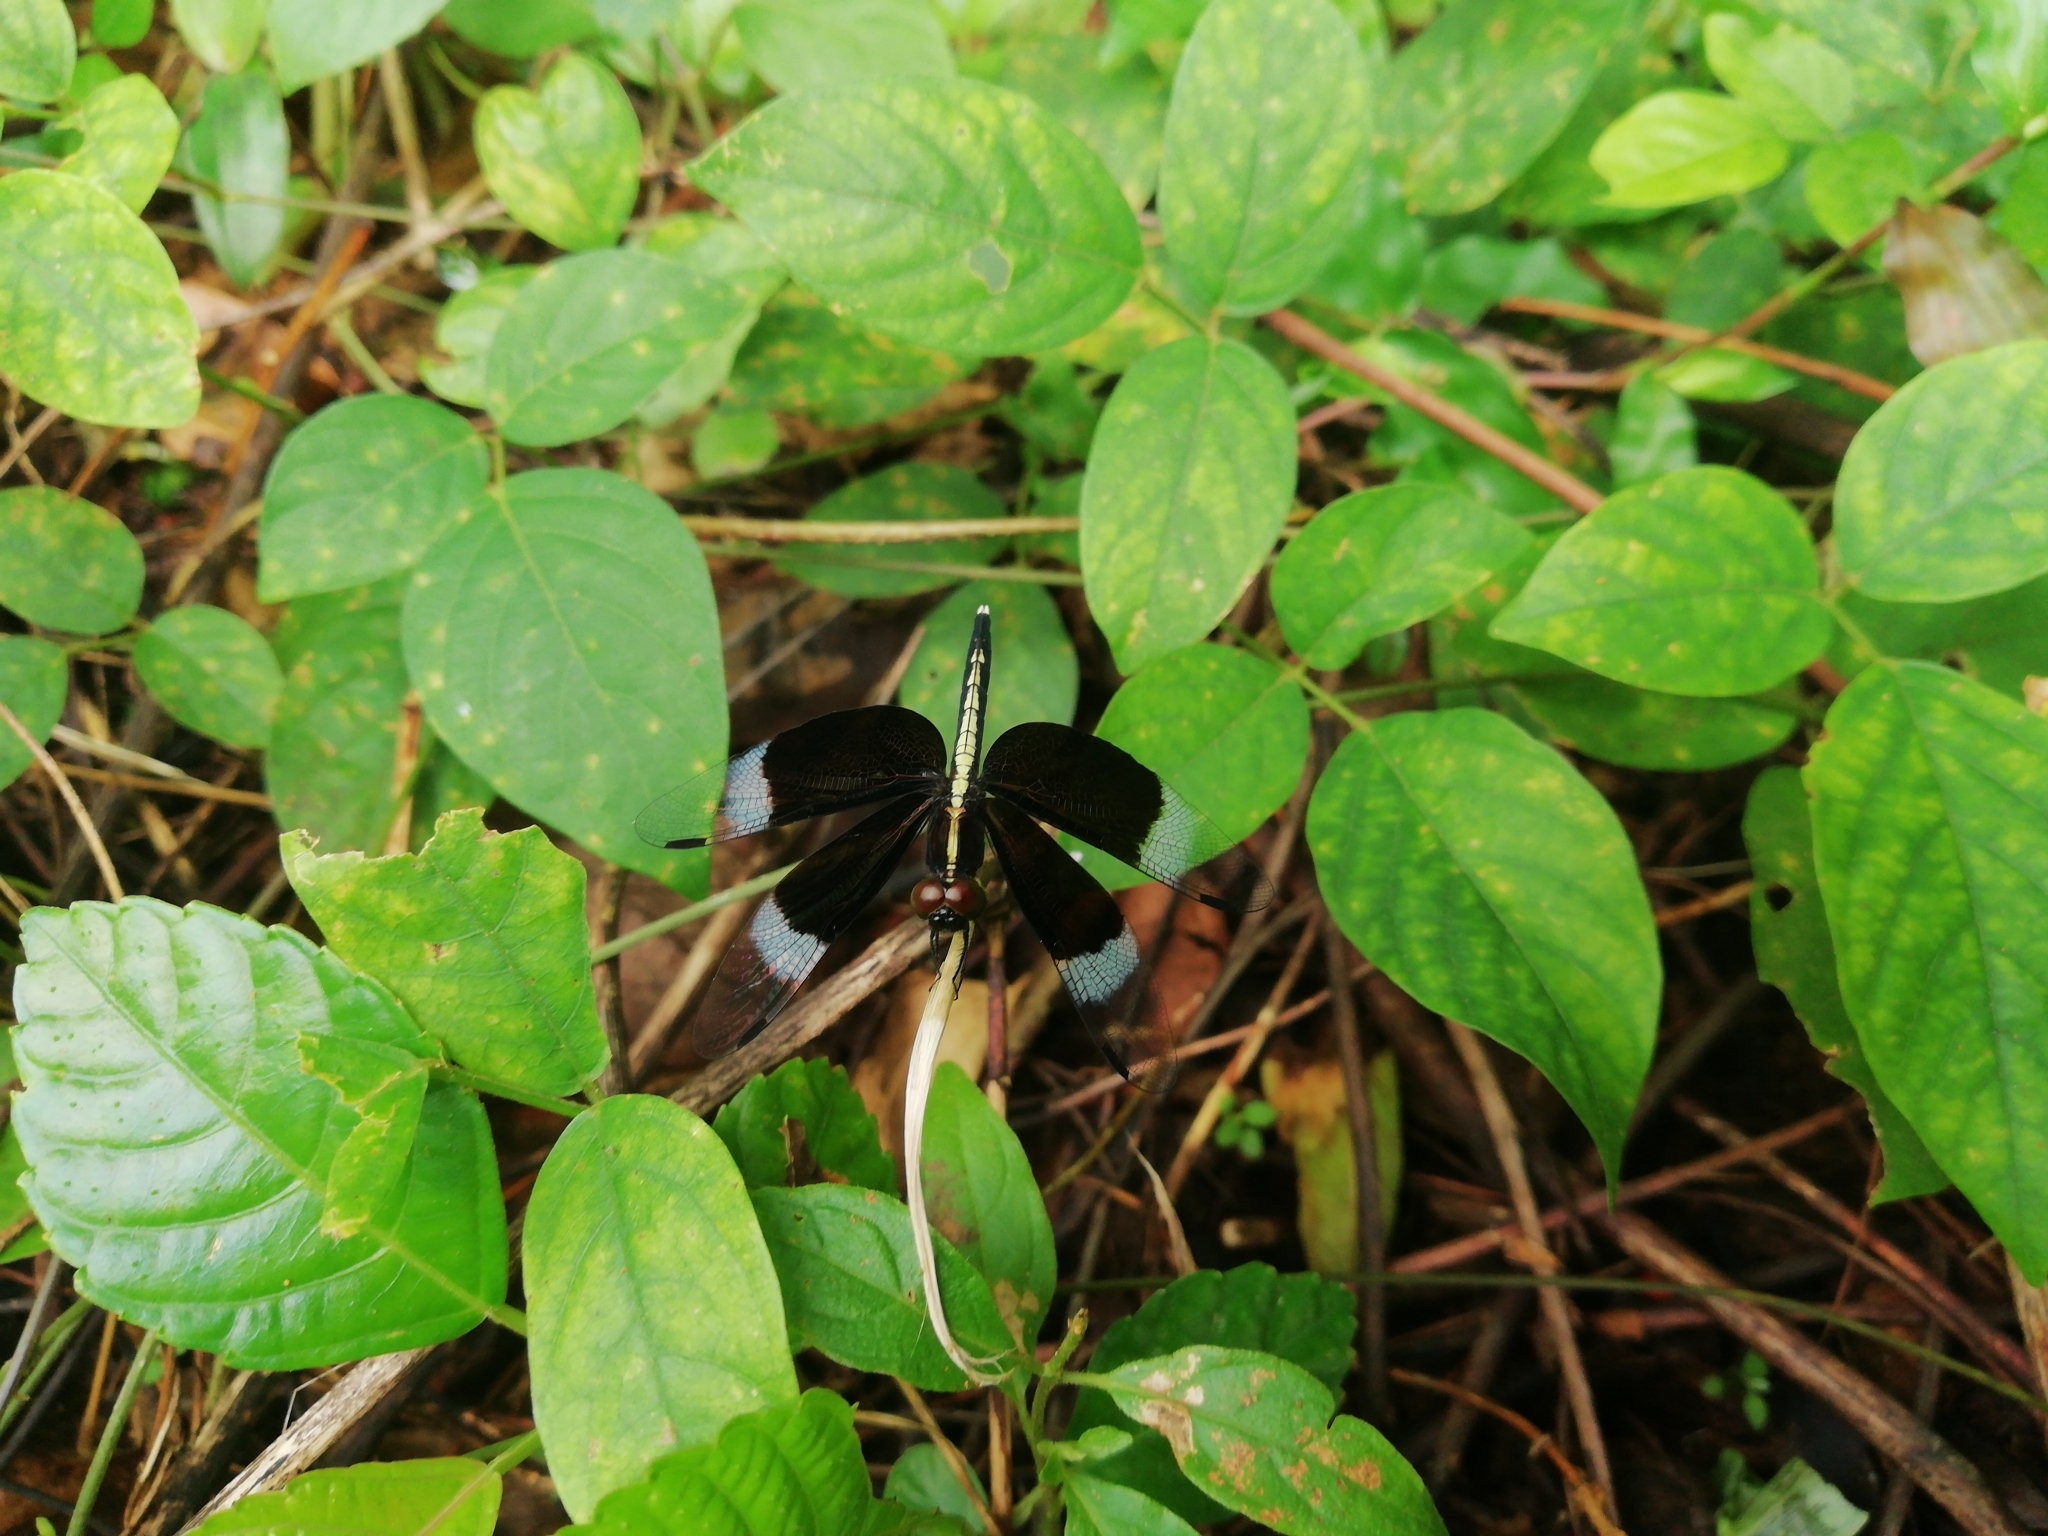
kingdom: Animalia
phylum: Arthropoda
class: Insecta
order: Odonata
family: Libellulidae
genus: Neurothemis
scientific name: Neurothemis tullia
